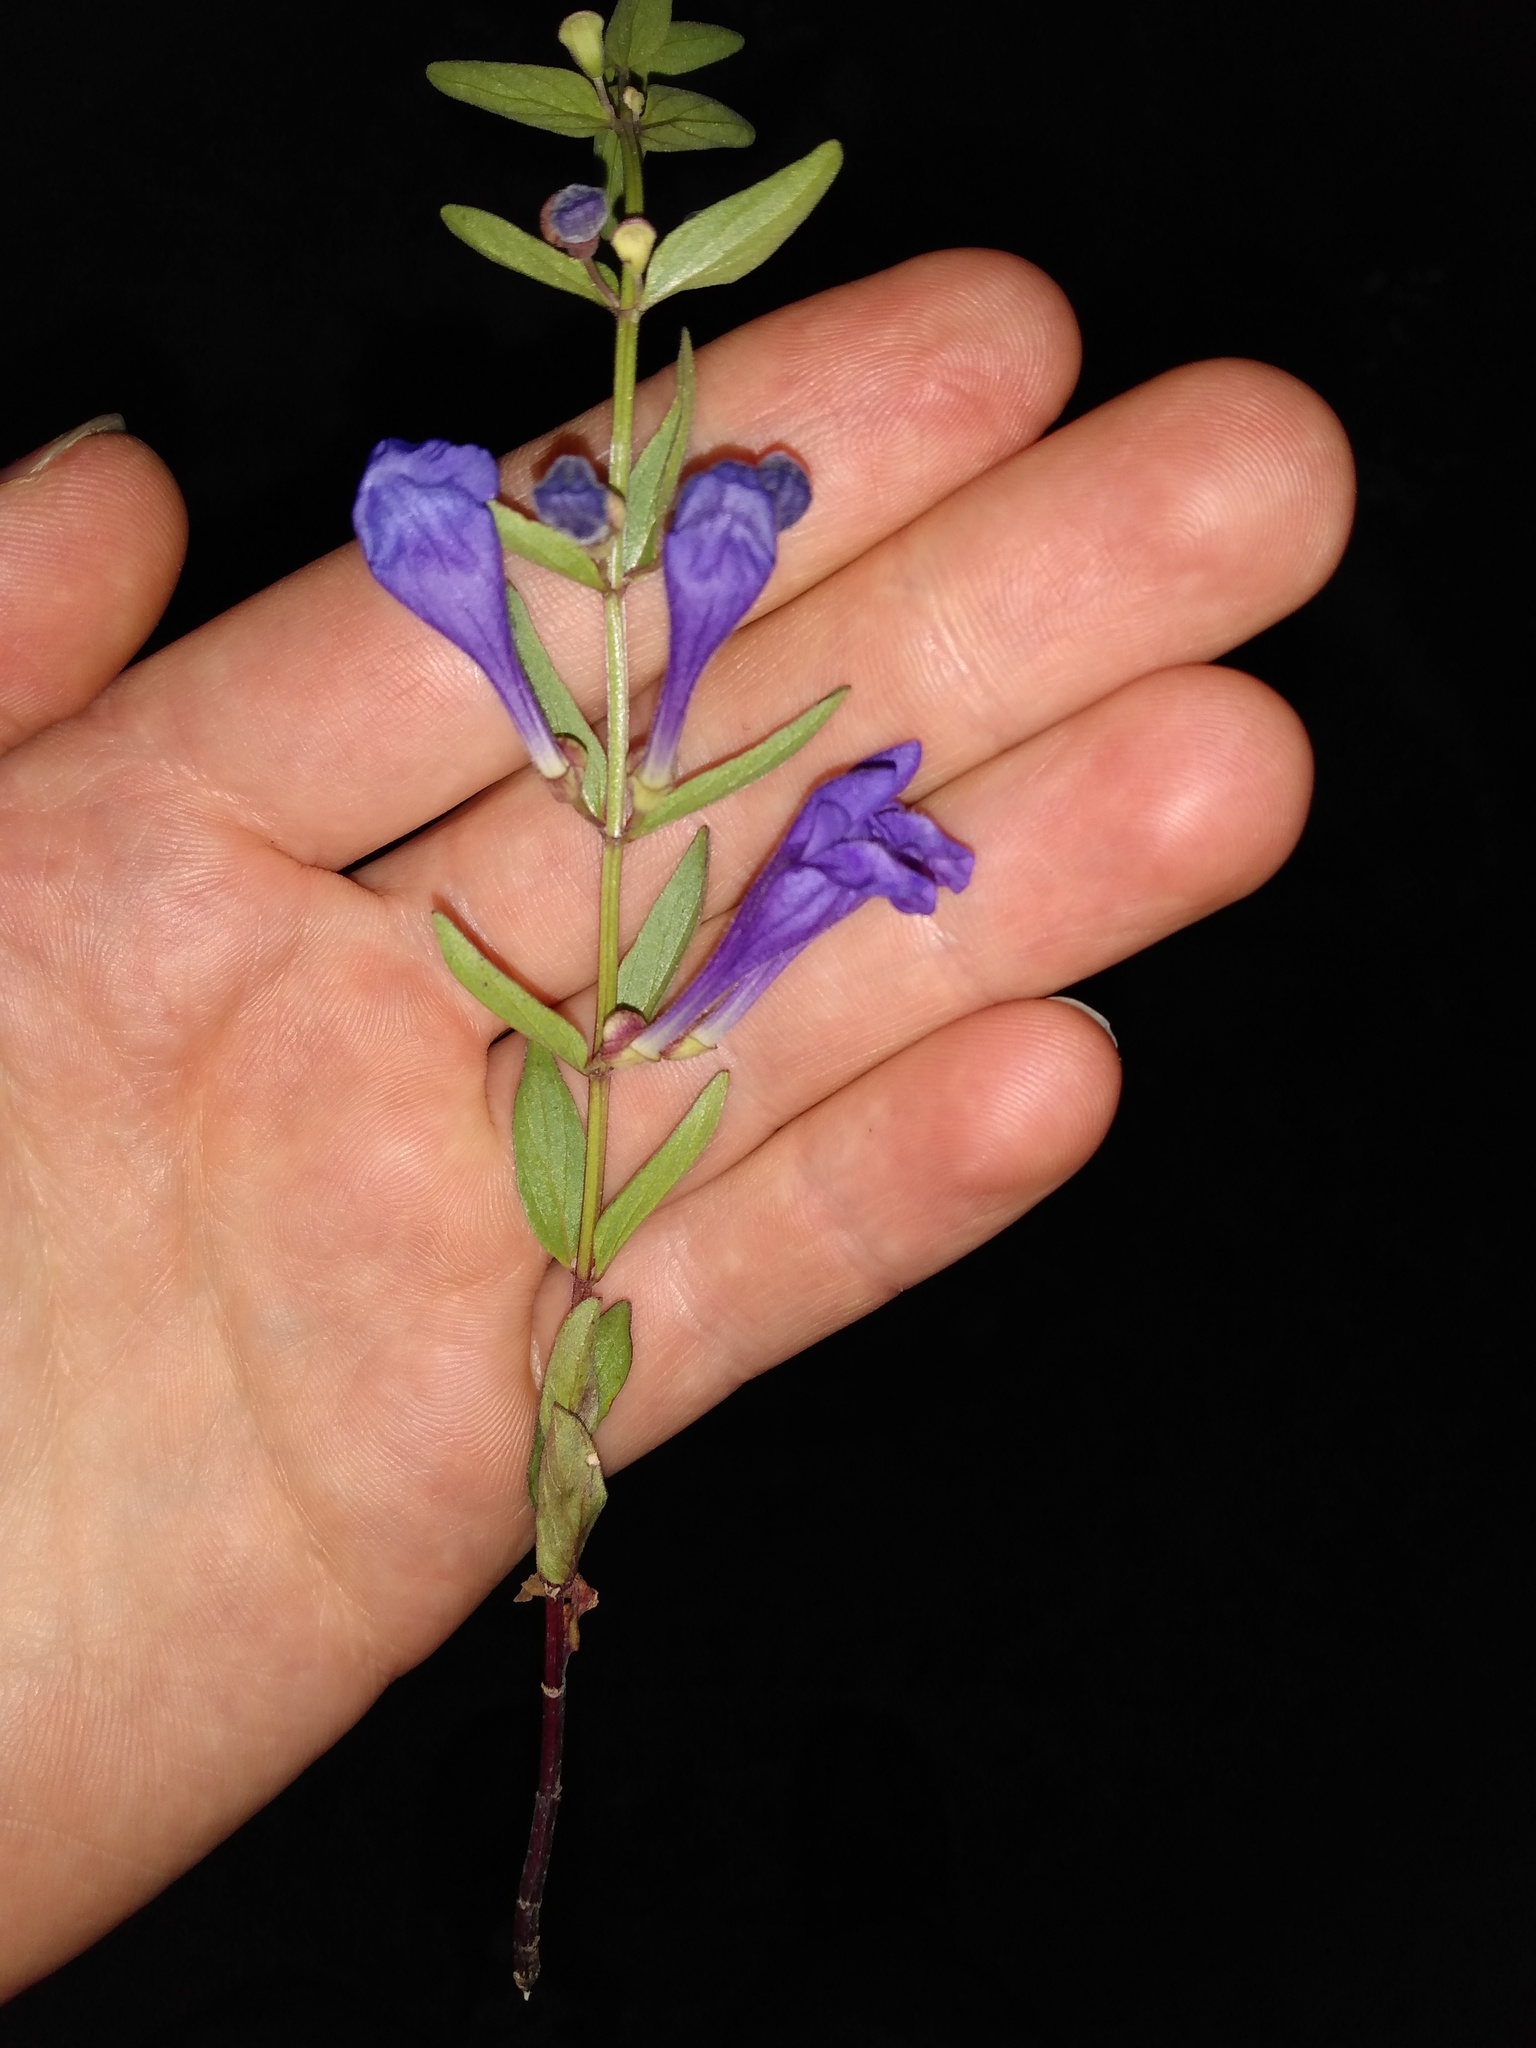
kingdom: Plantae
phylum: Tracheophyta
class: Magnoliopsida
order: Lamiales
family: Lamiaceae
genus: Scutellaria
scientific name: Scutellaria angustifolia
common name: Narrow-leaved skullcap
